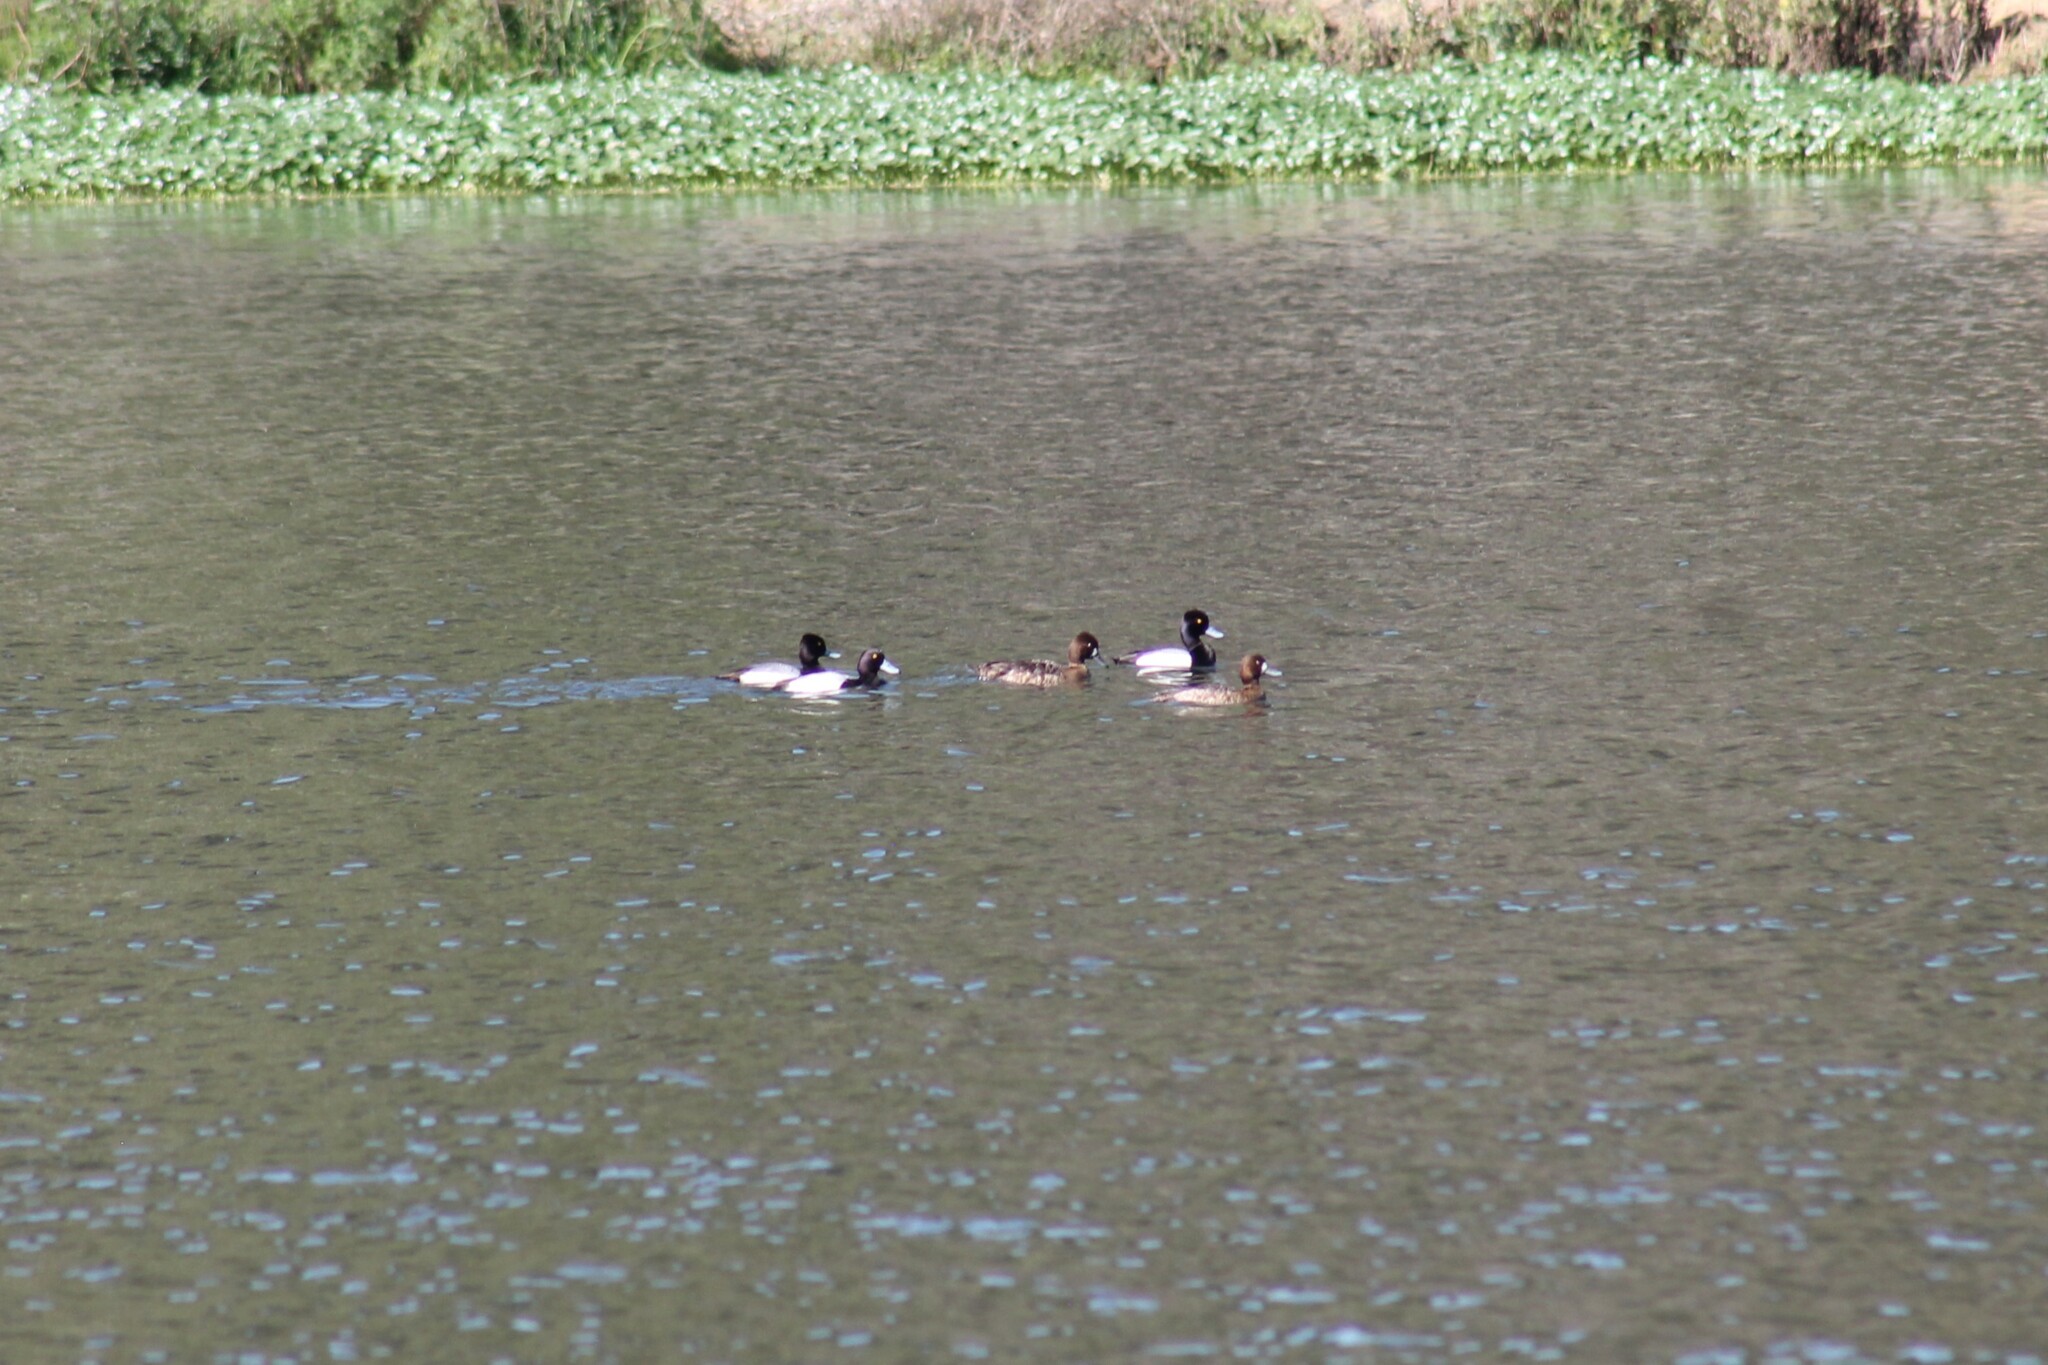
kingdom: Animalia
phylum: Chordata
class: Aves
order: Anseriformes
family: Anatidae
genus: Aythya
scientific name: Aythya affinis
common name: Lesser scaup
